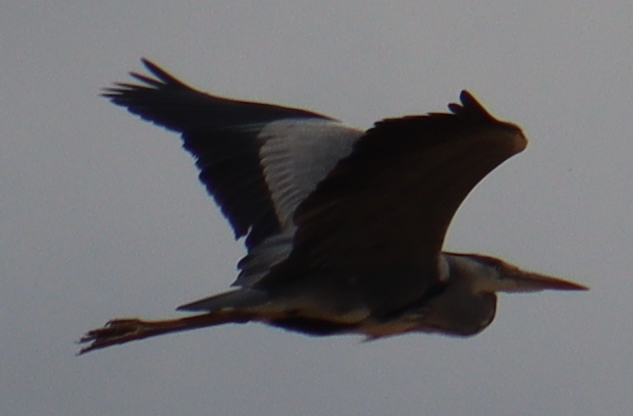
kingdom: Animalia
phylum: Chordata
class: Aves
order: Pelecaniformes
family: Ardeidae
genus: Ardea
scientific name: Ardea cinerea
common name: Grey heron
